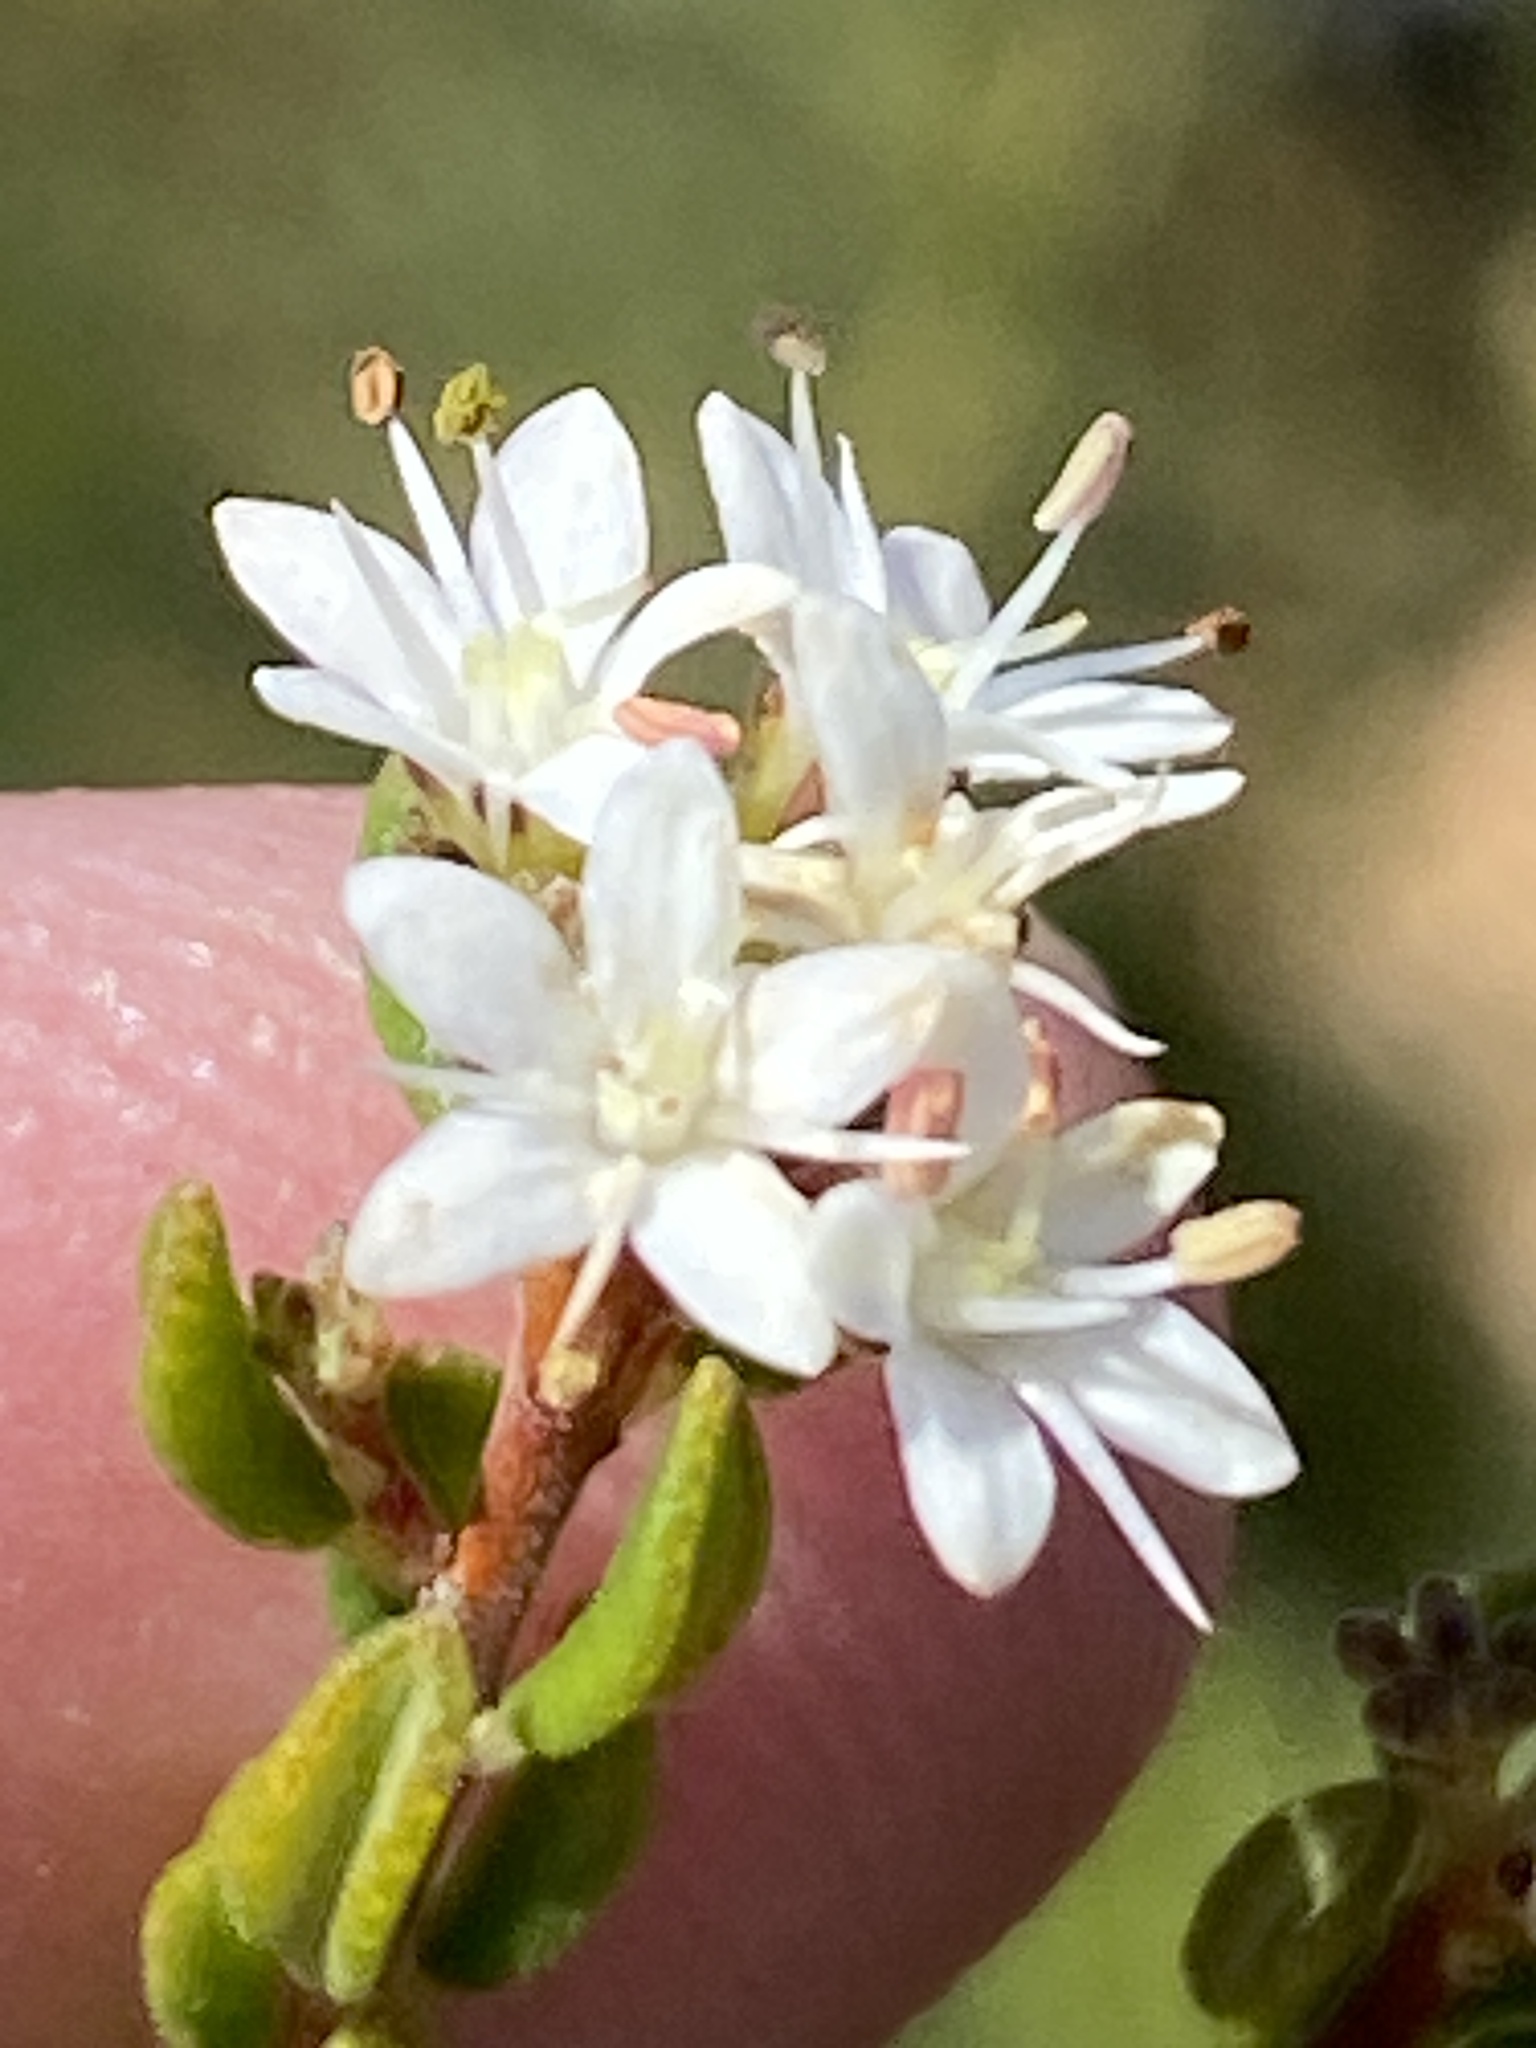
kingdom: Plantae
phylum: Tracheophyta
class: Magnoliopsida
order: Sapindales
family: Rutaceae
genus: Agathosma
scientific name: Agathosma mundtii
